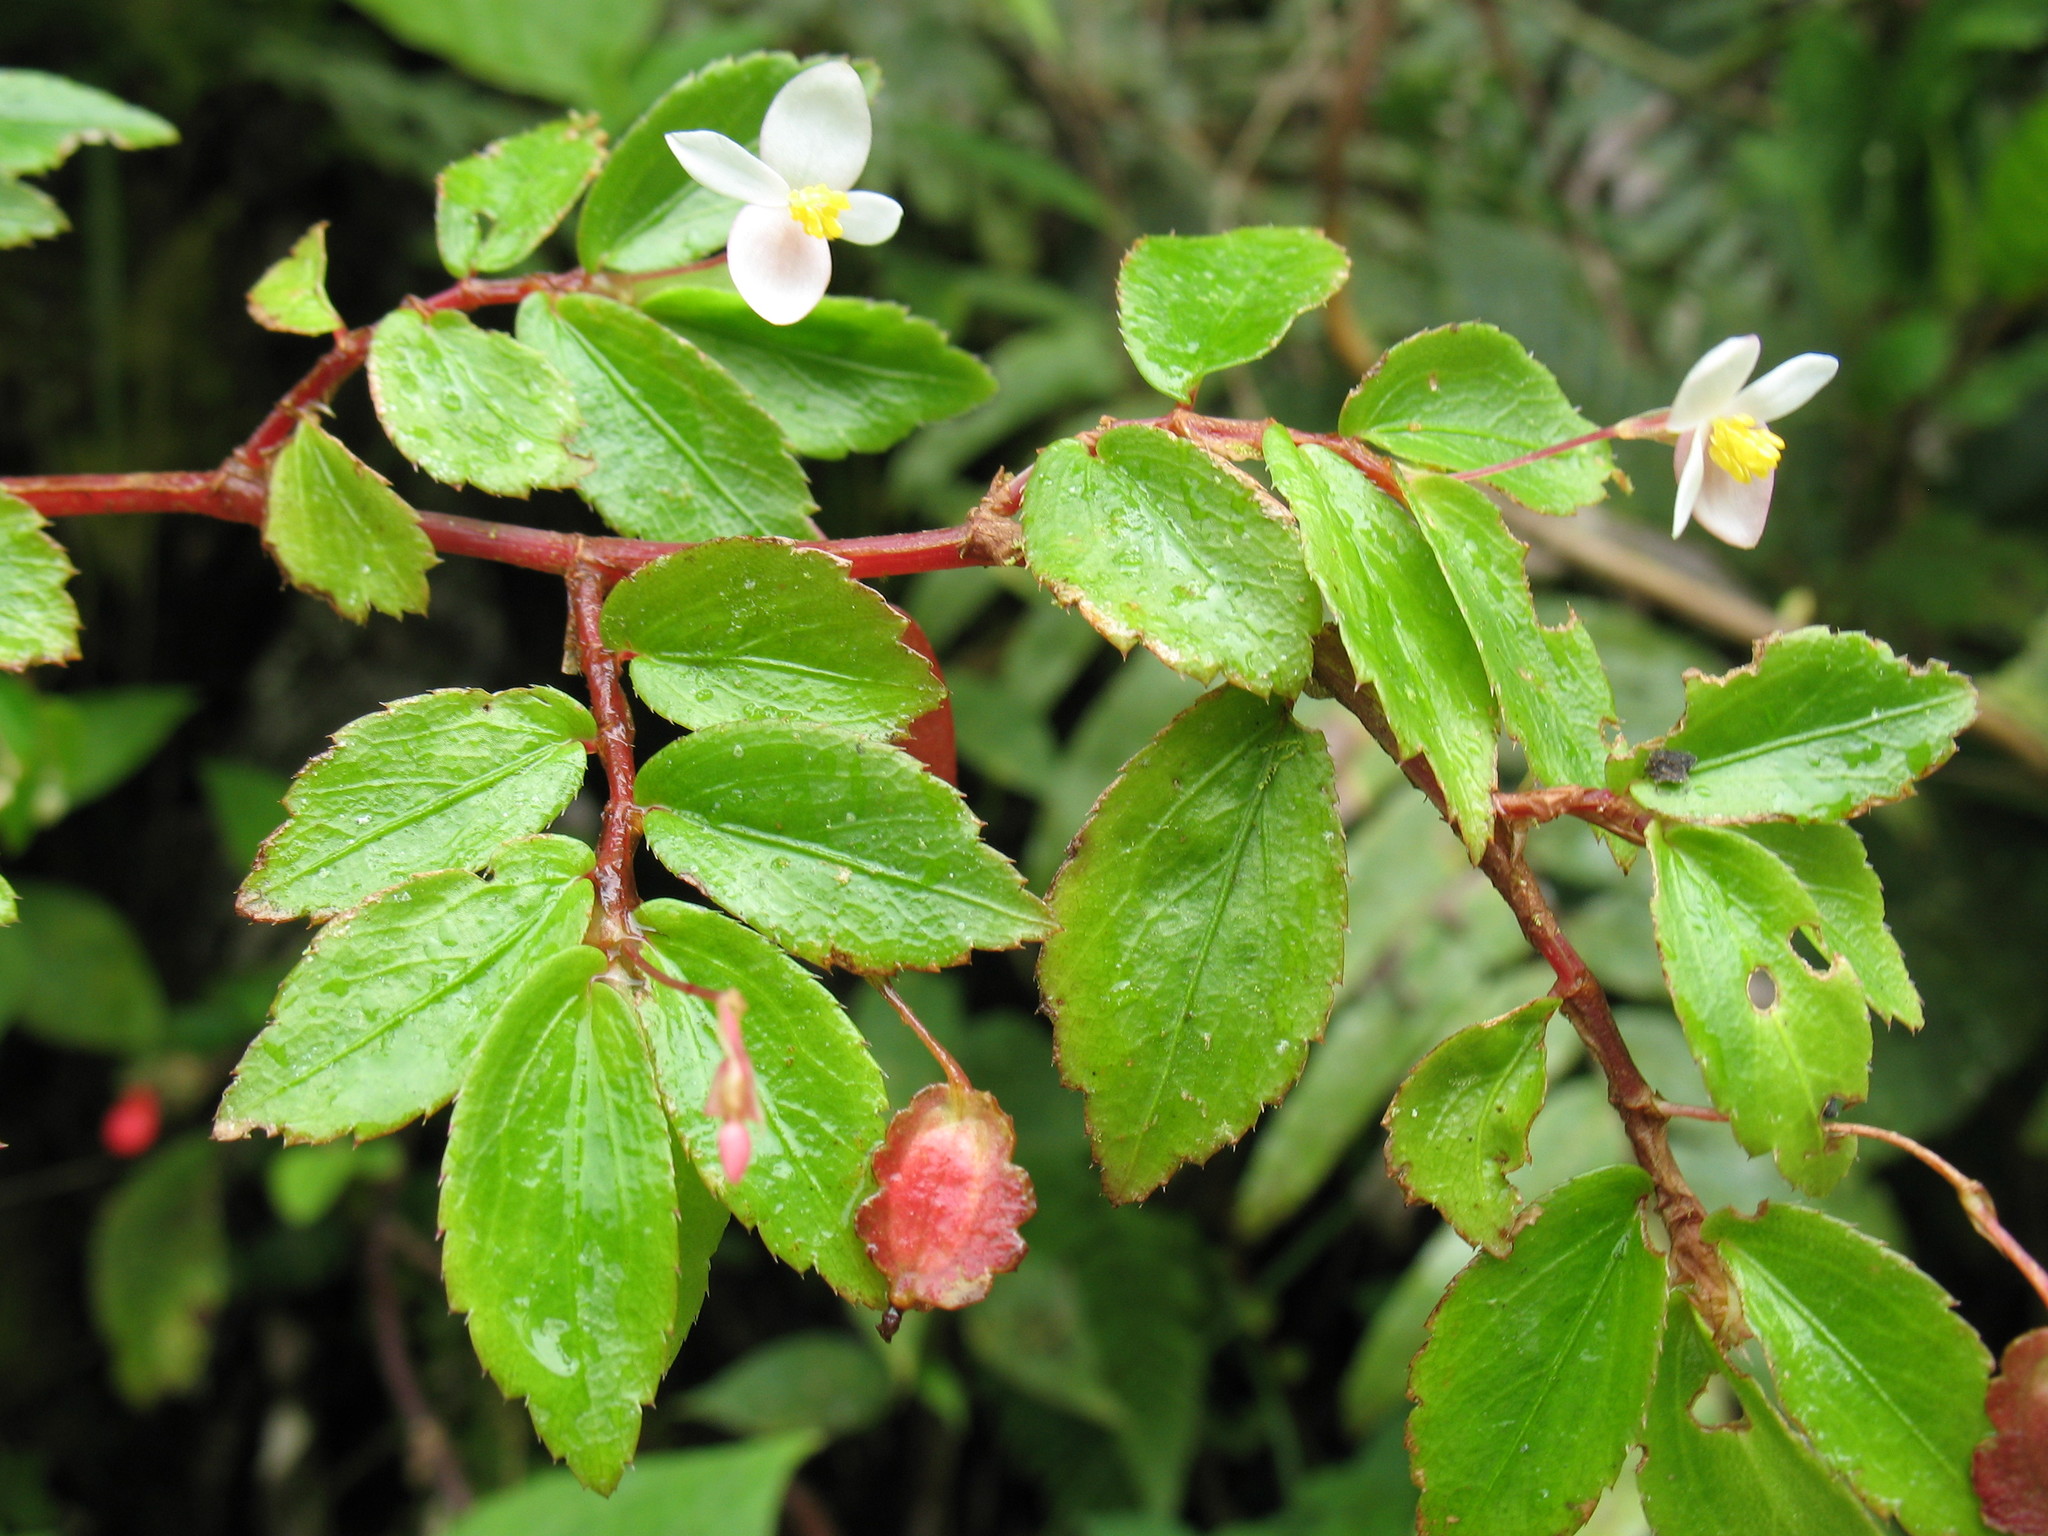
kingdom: Plantae
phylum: Tracheophyta
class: Magnoliopsida
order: Cucurbitales
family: Begoniaceae
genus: Begonia
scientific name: Begonia foliosa
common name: Fern begonia
